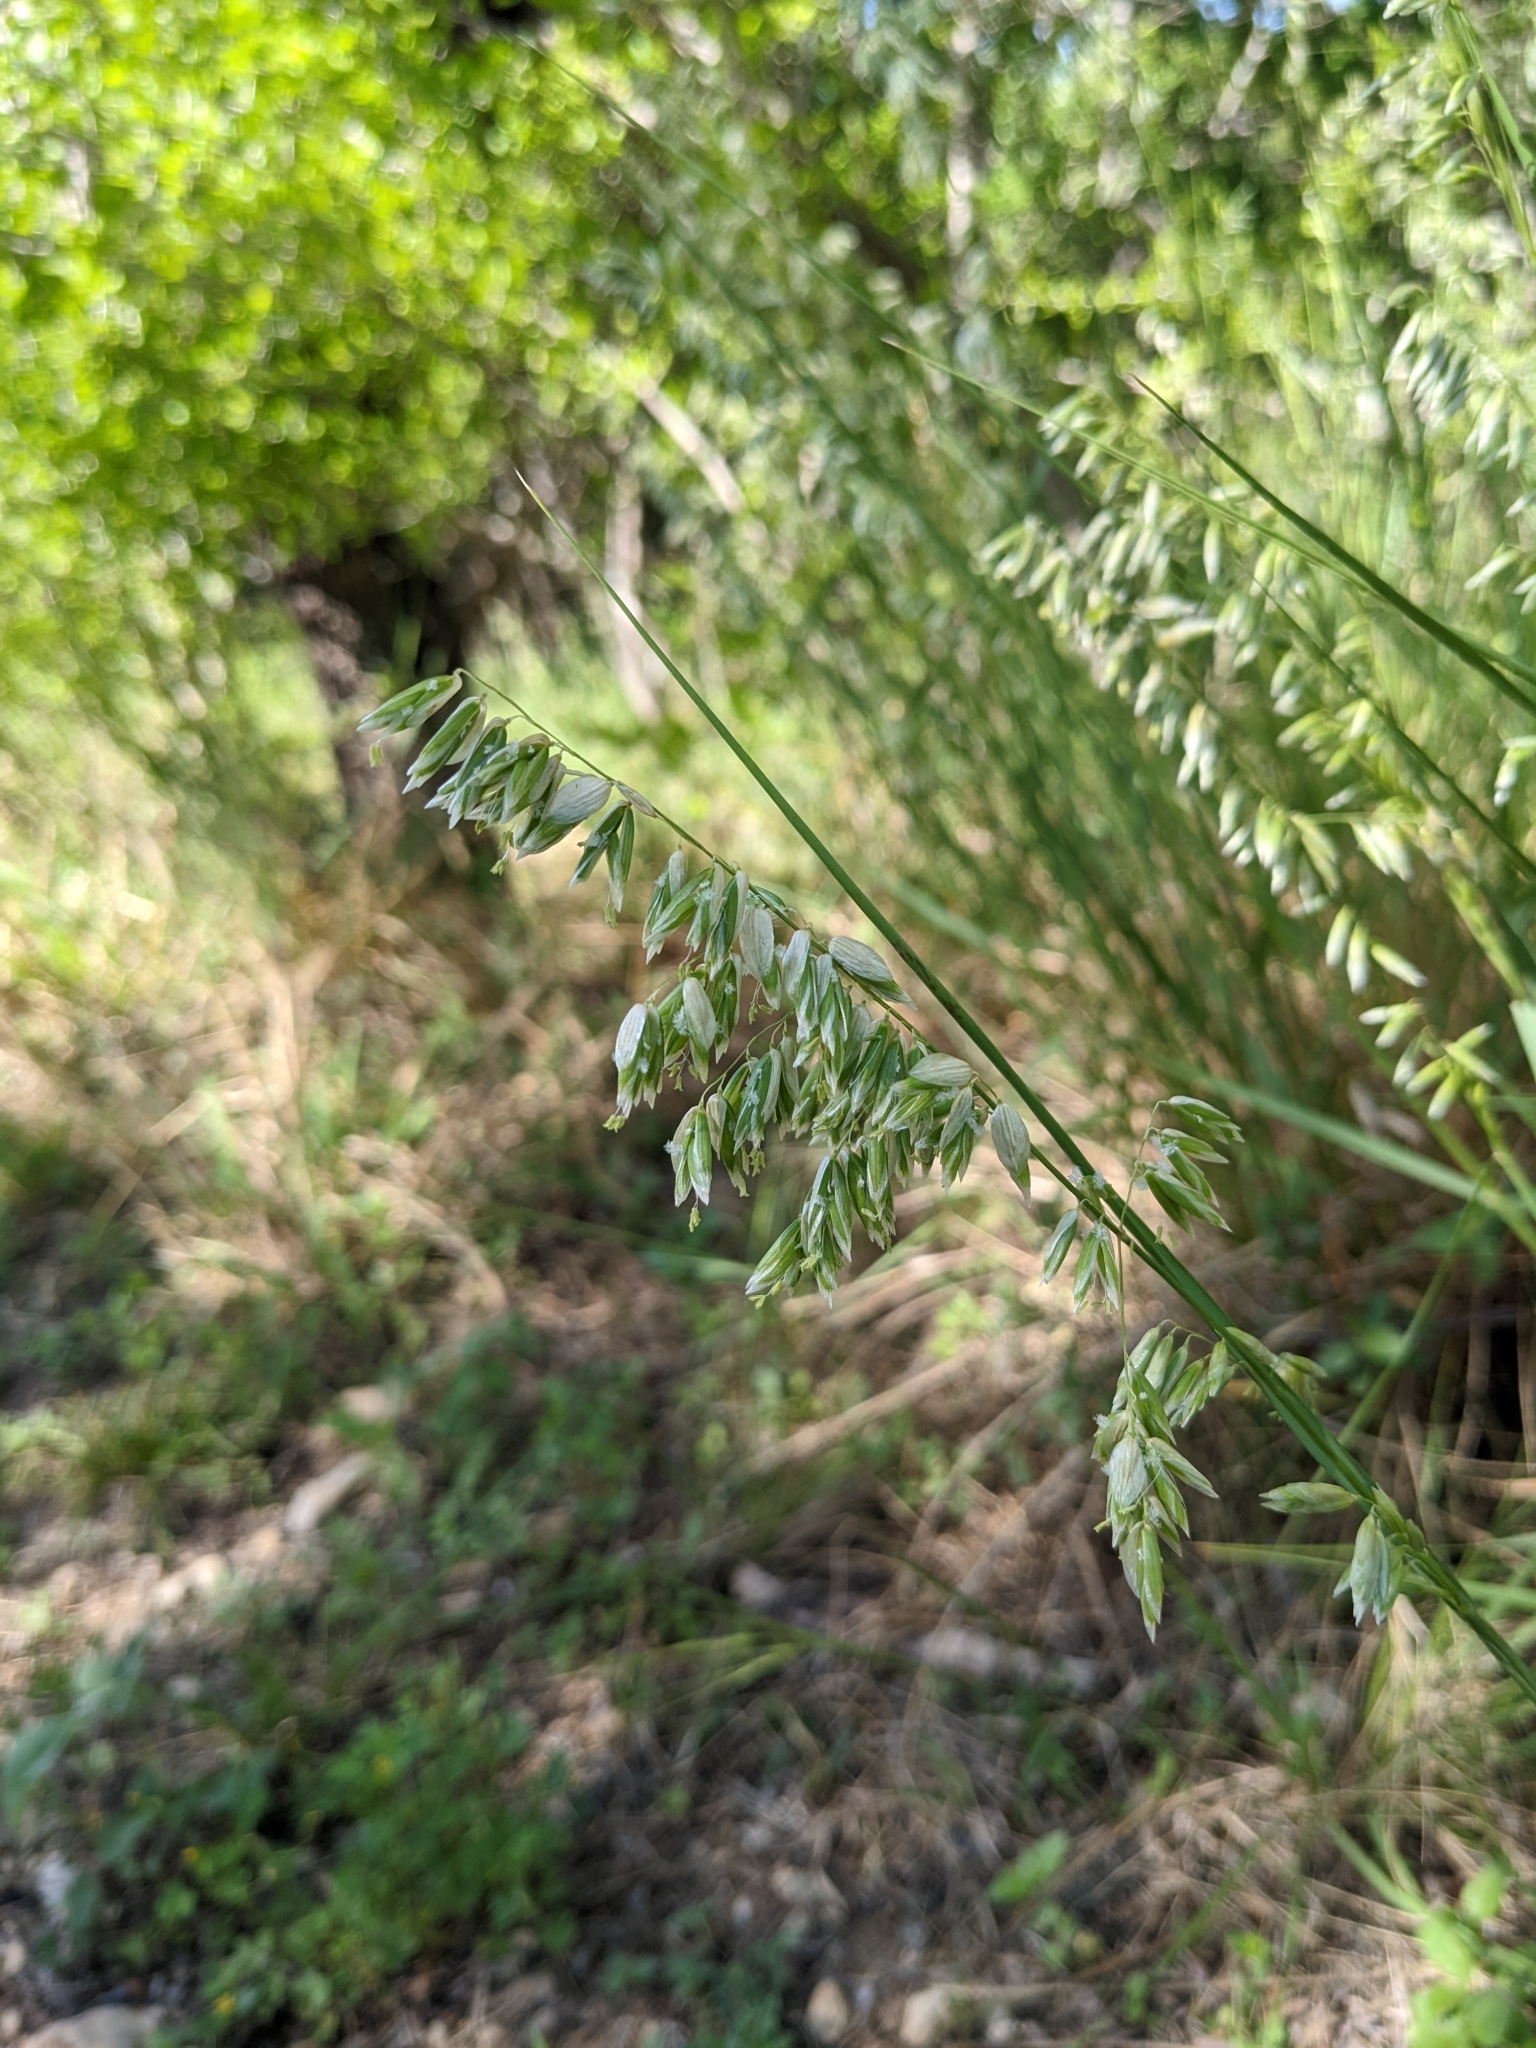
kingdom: Plantae
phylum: Tracheophyta
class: Liliopsida
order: Poales
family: Poaceae
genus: Melica
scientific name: Melica nitens
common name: Three-flower melic
